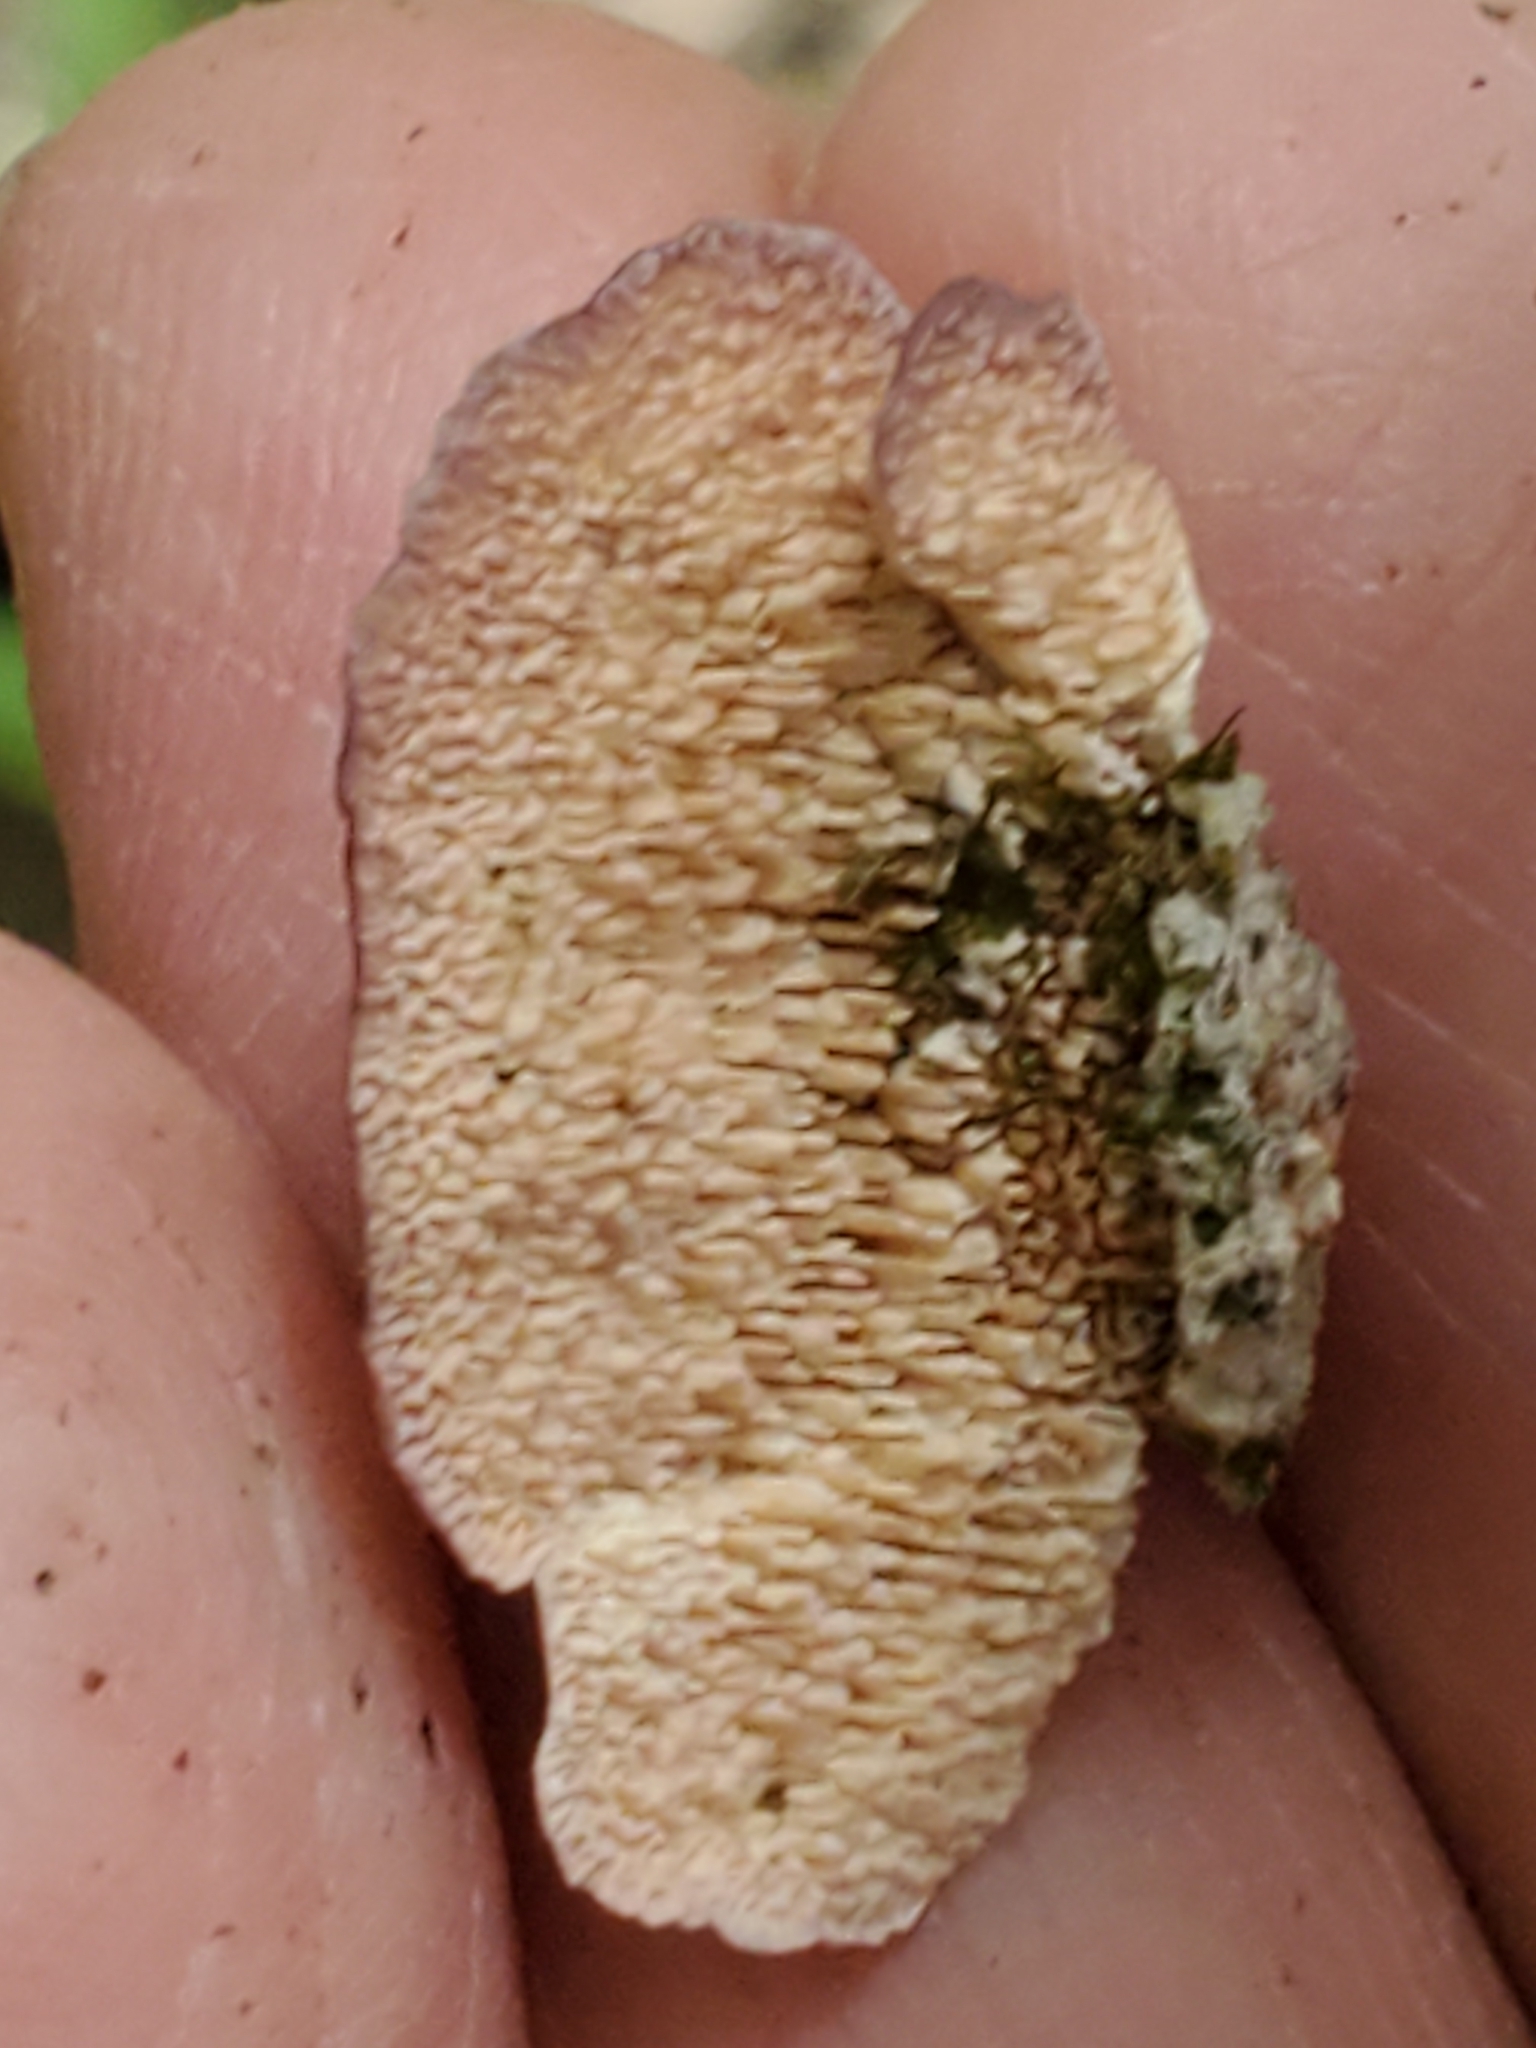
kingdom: Fungi
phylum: Basidiomycota
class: Agaricomycetes
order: Hymenochaetales
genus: Trichaptum
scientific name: Trichaptum biforme
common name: Violet-toothed polypore
